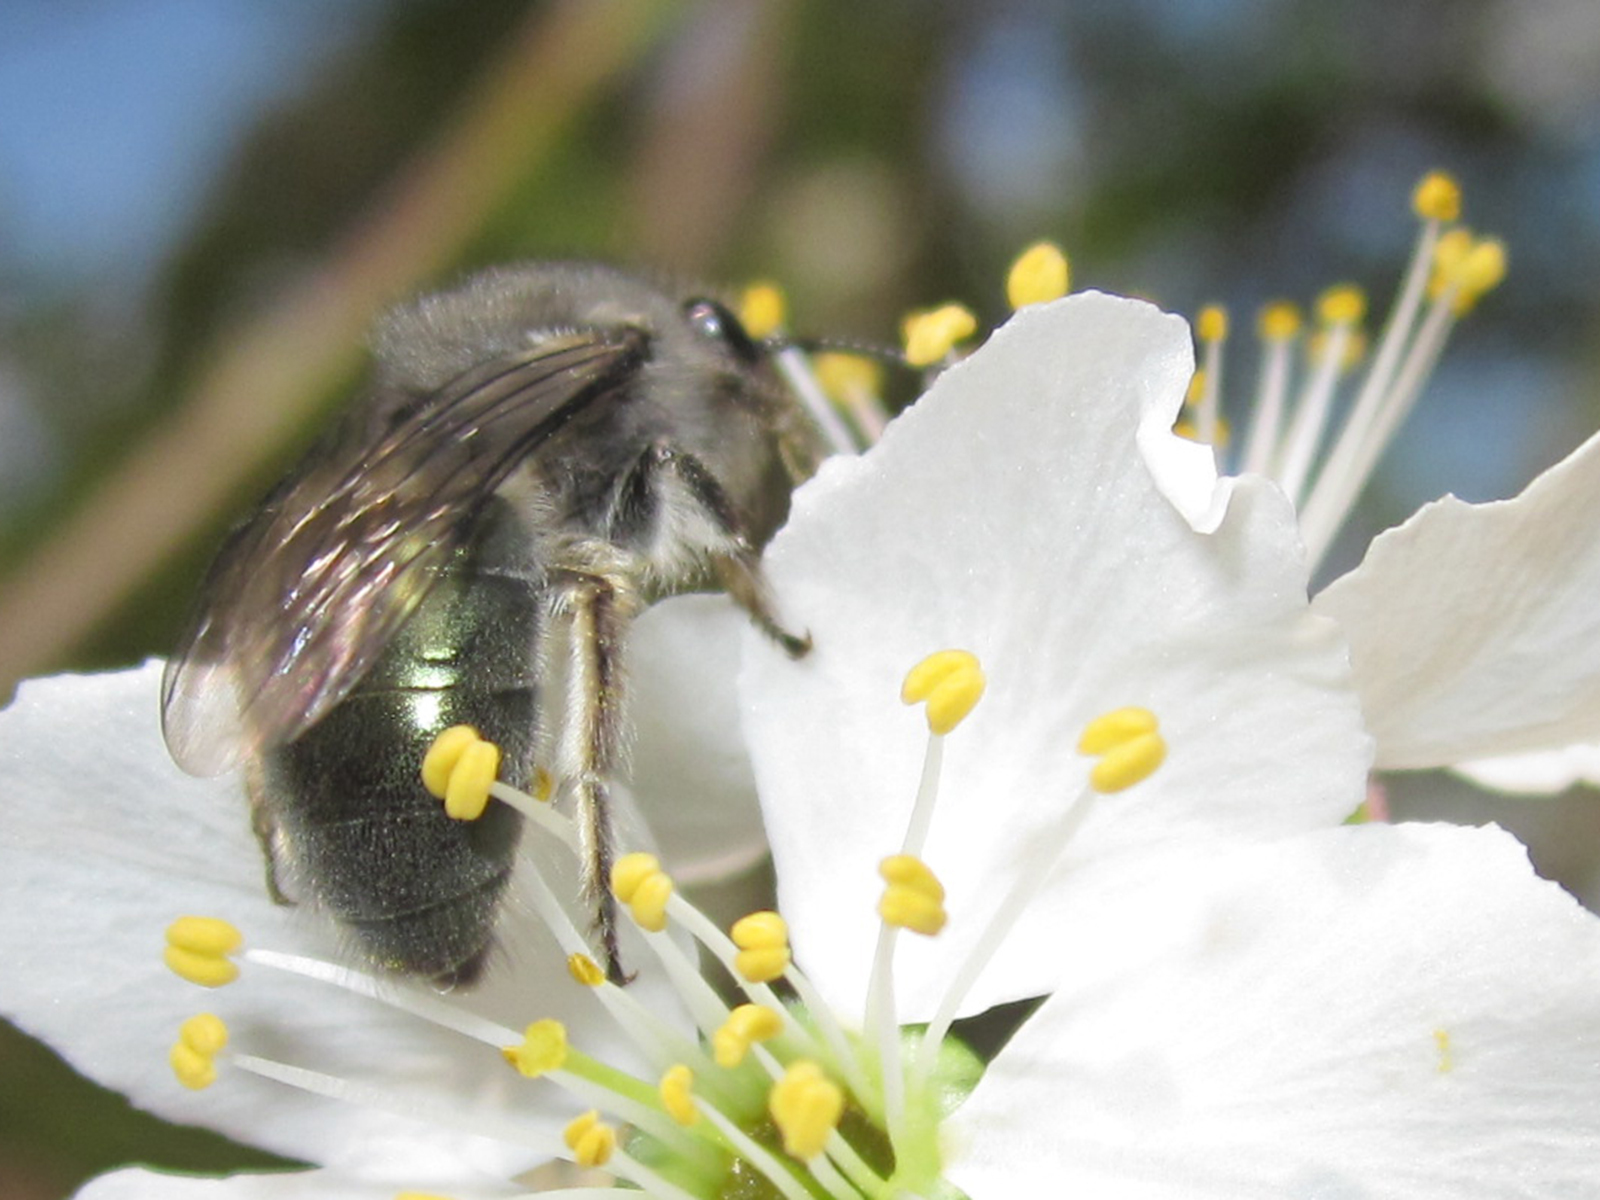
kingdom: Animalia
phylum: Arthropoda
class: Insecta
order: Hymenoptera
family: Colletidae
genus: Colletes
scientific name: Colletes cyanescens
